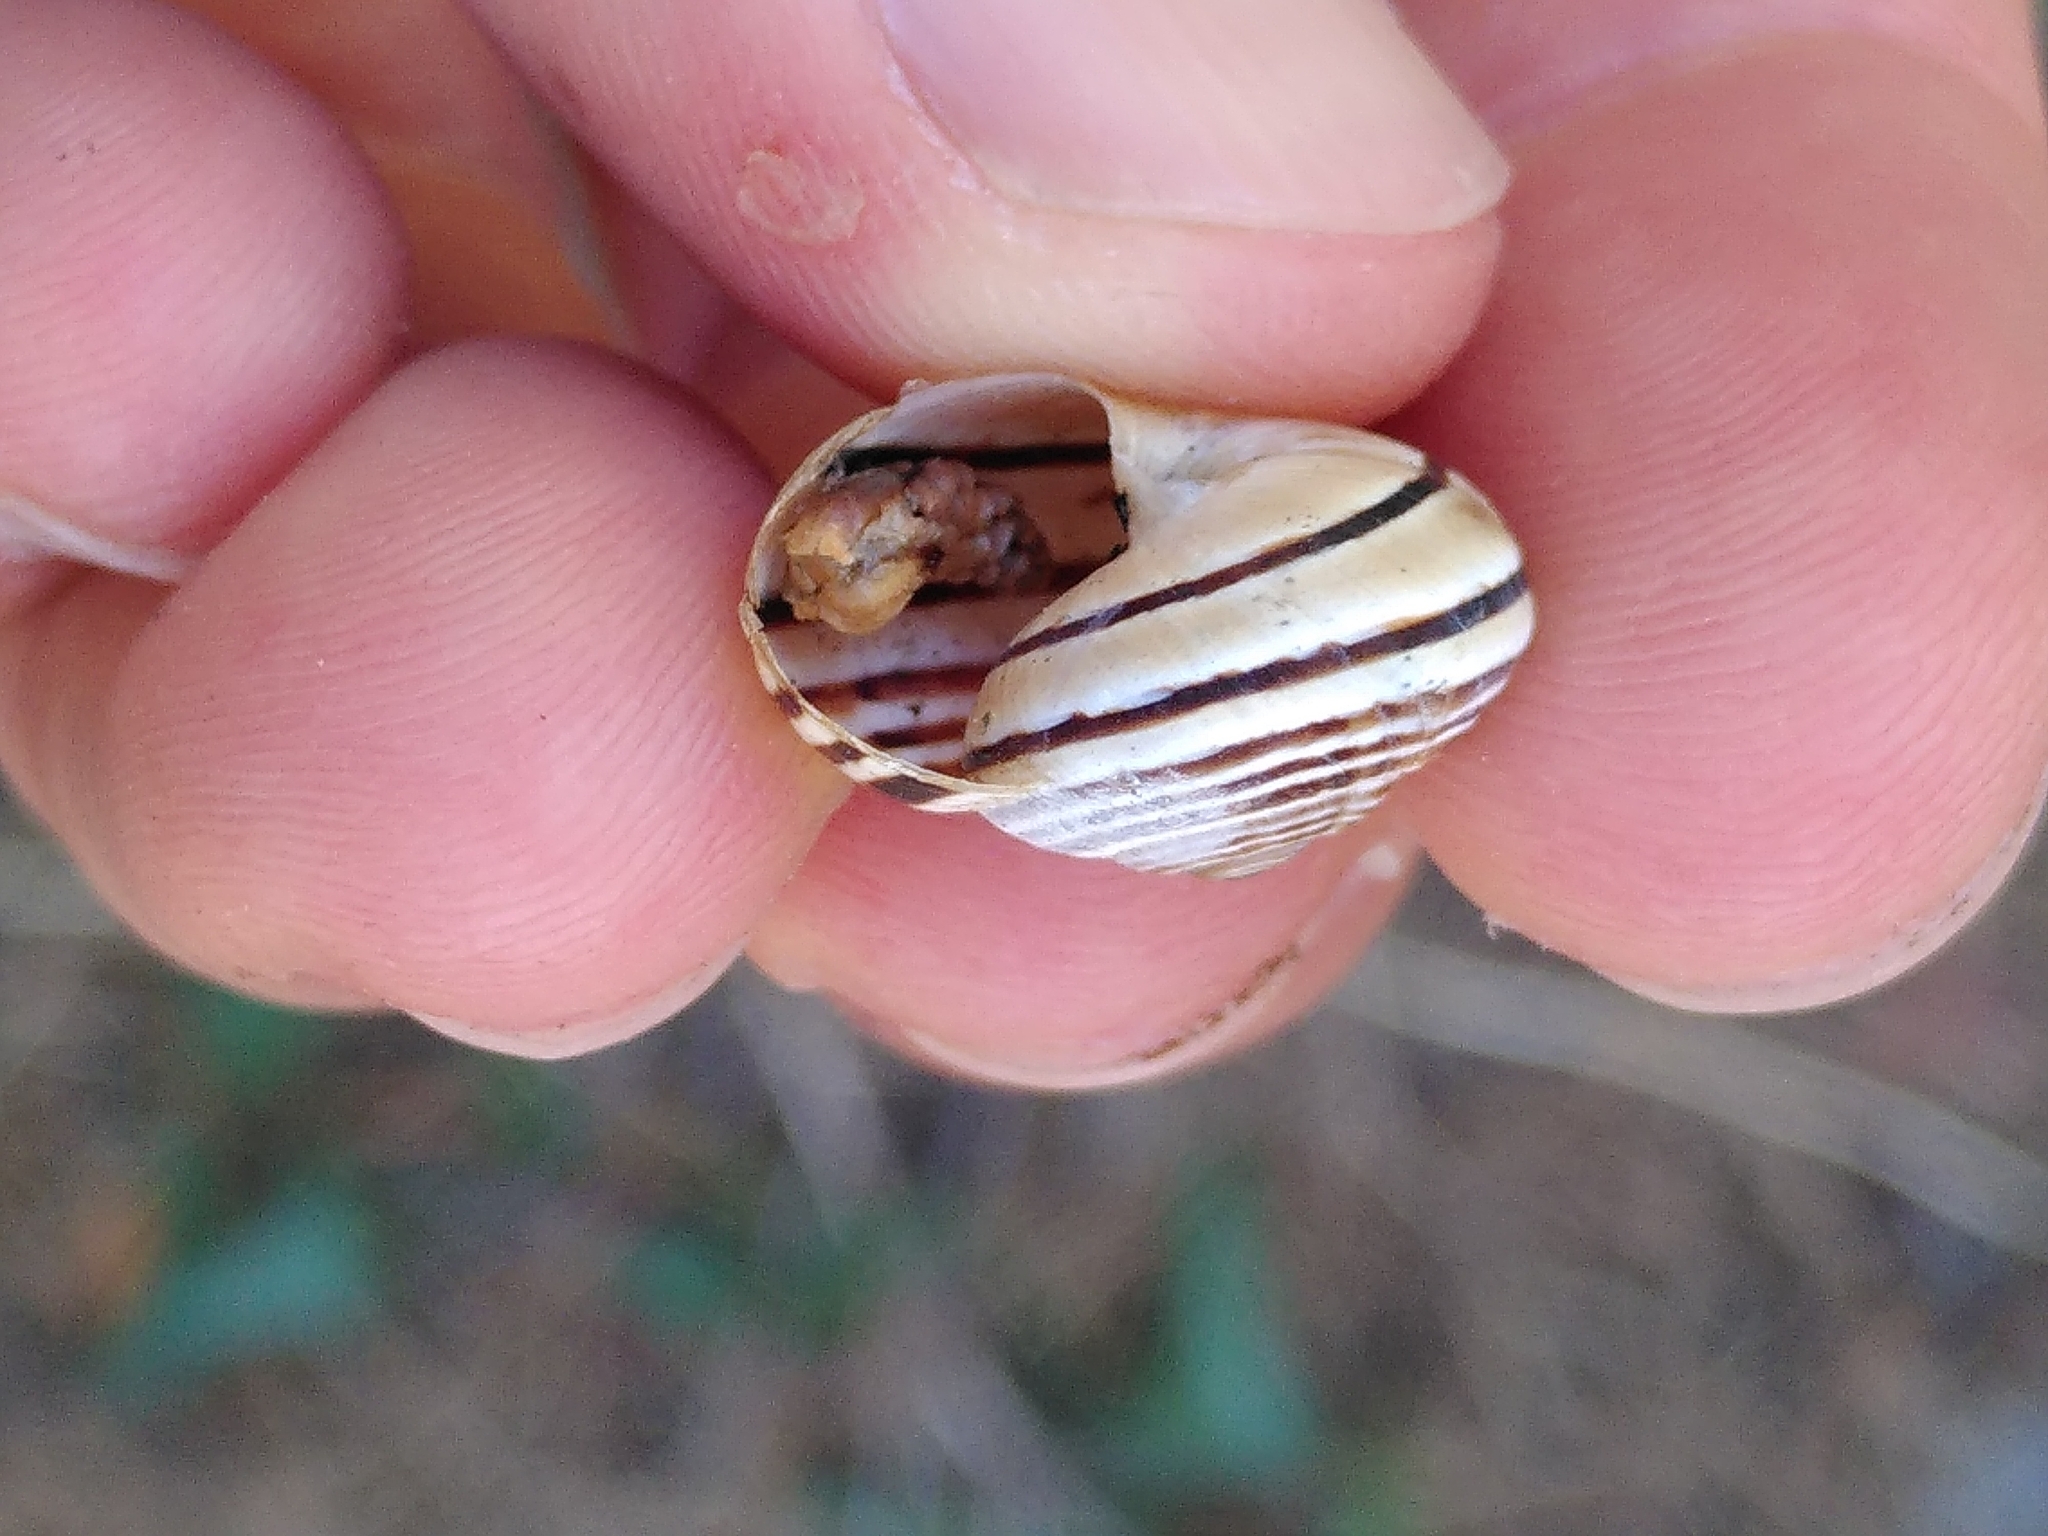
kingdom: Animalia
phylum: Mollusca
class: Gastropoda
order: Stylommatophora
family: Helicidae
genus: Pseudotachea
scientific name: Pseudotachea splendida
